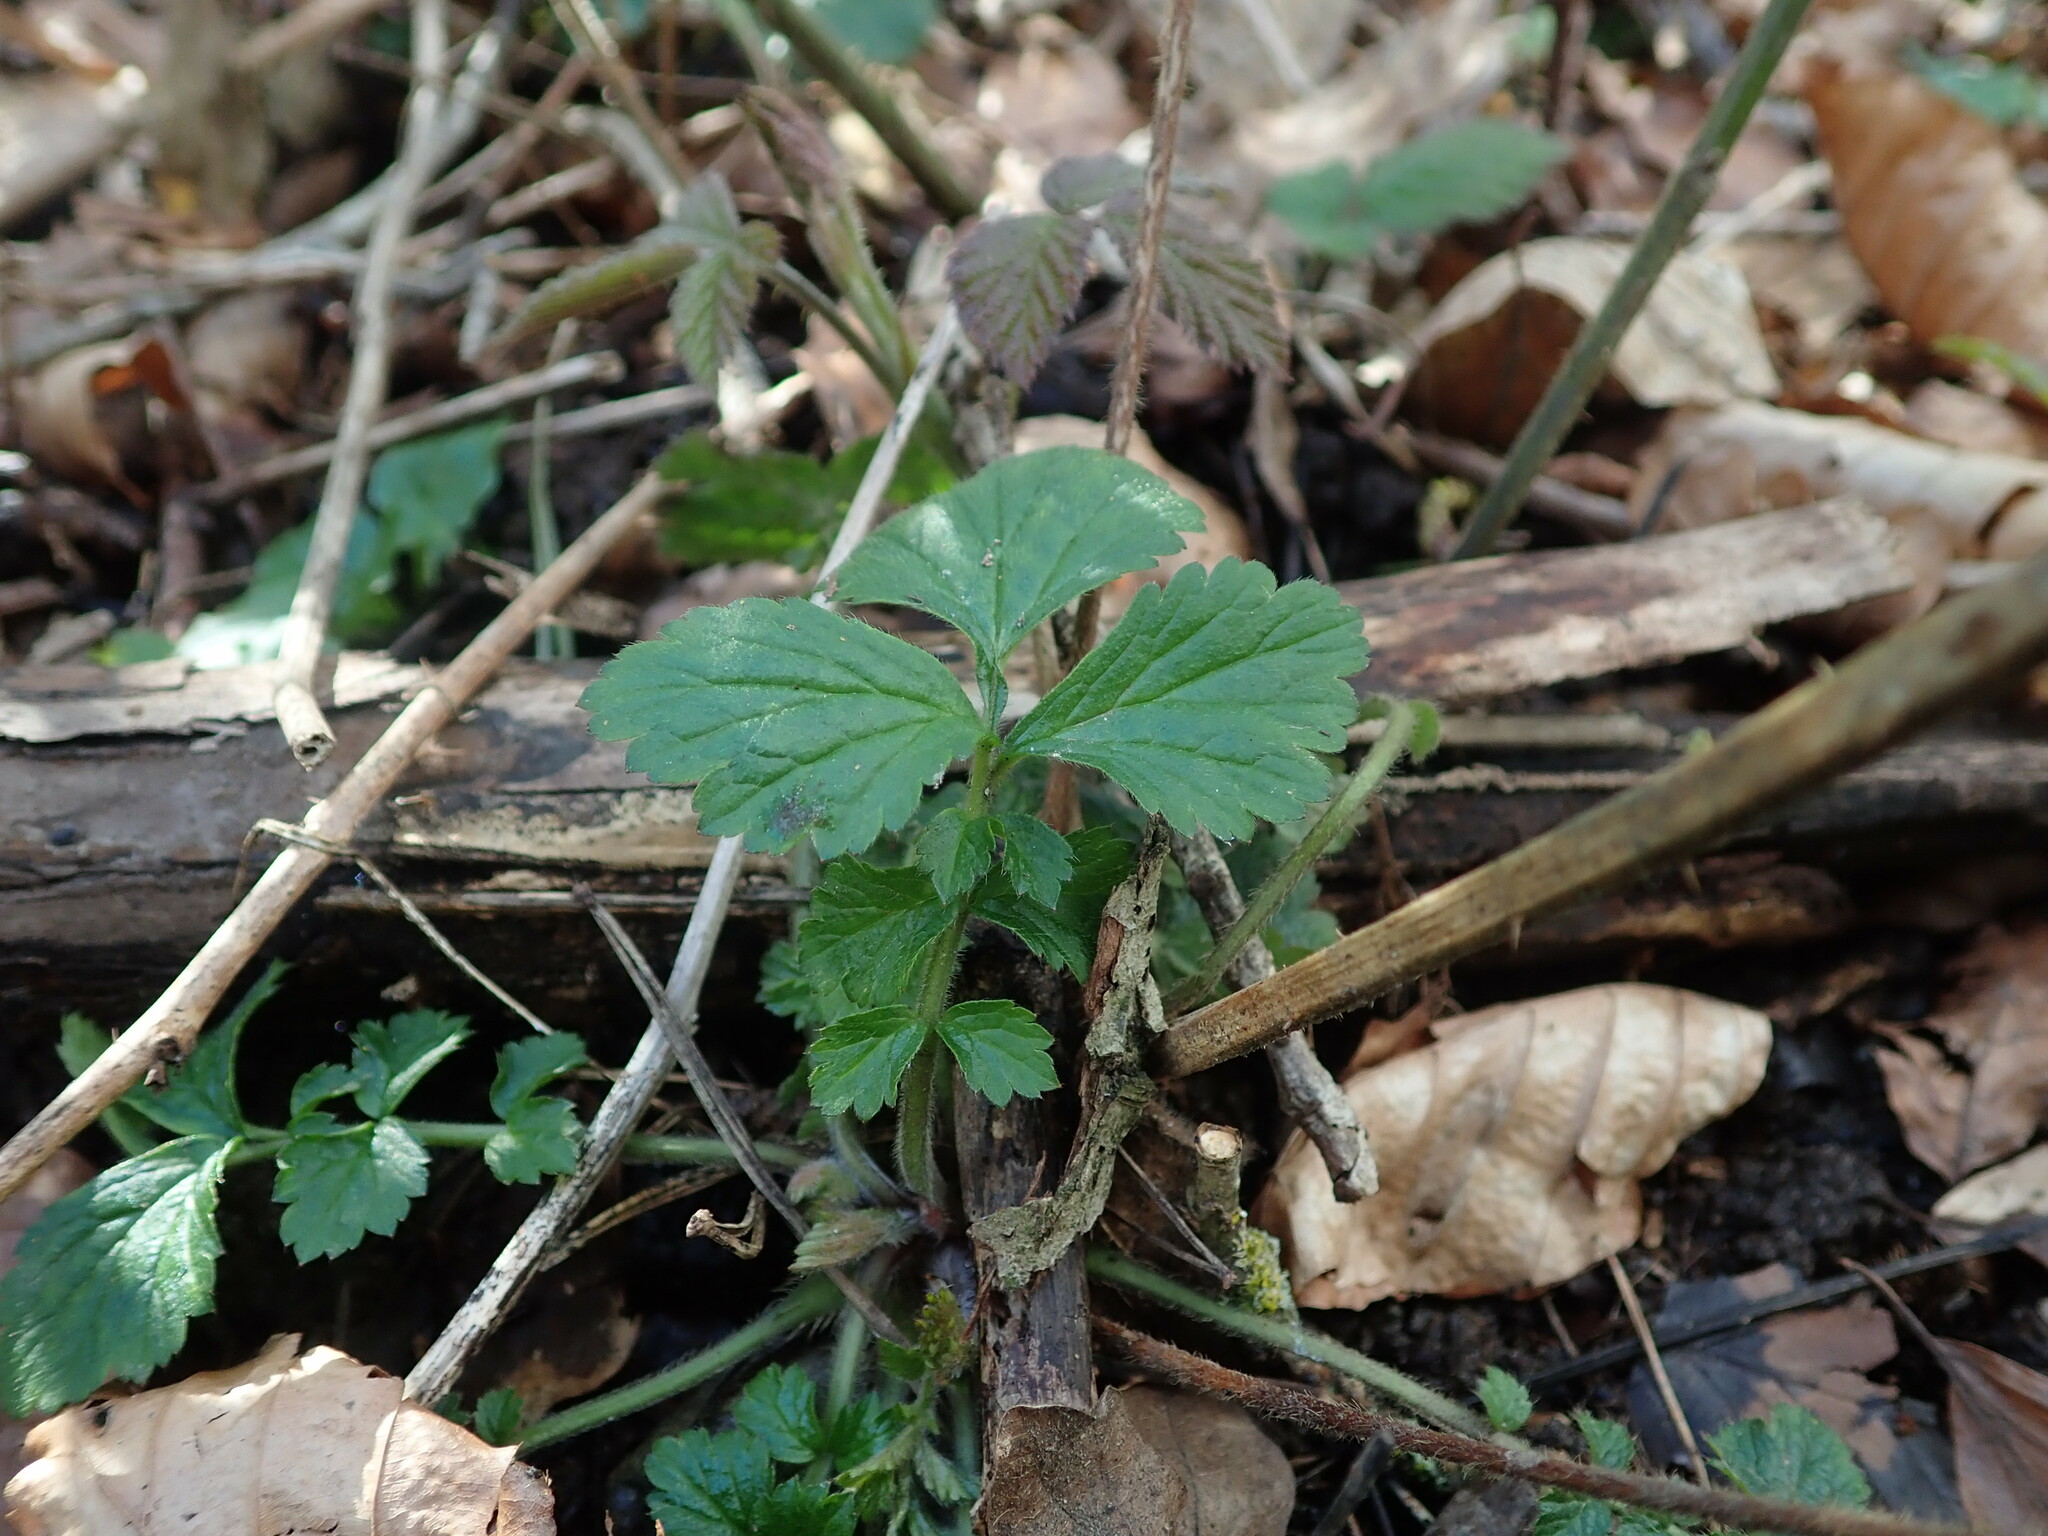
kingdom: Plantae
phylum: Tracheophyta
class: Magnoliopsida
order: Rosales
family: Rosaceae
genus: Geum
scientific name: Geum urbanum
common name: Wood avens
